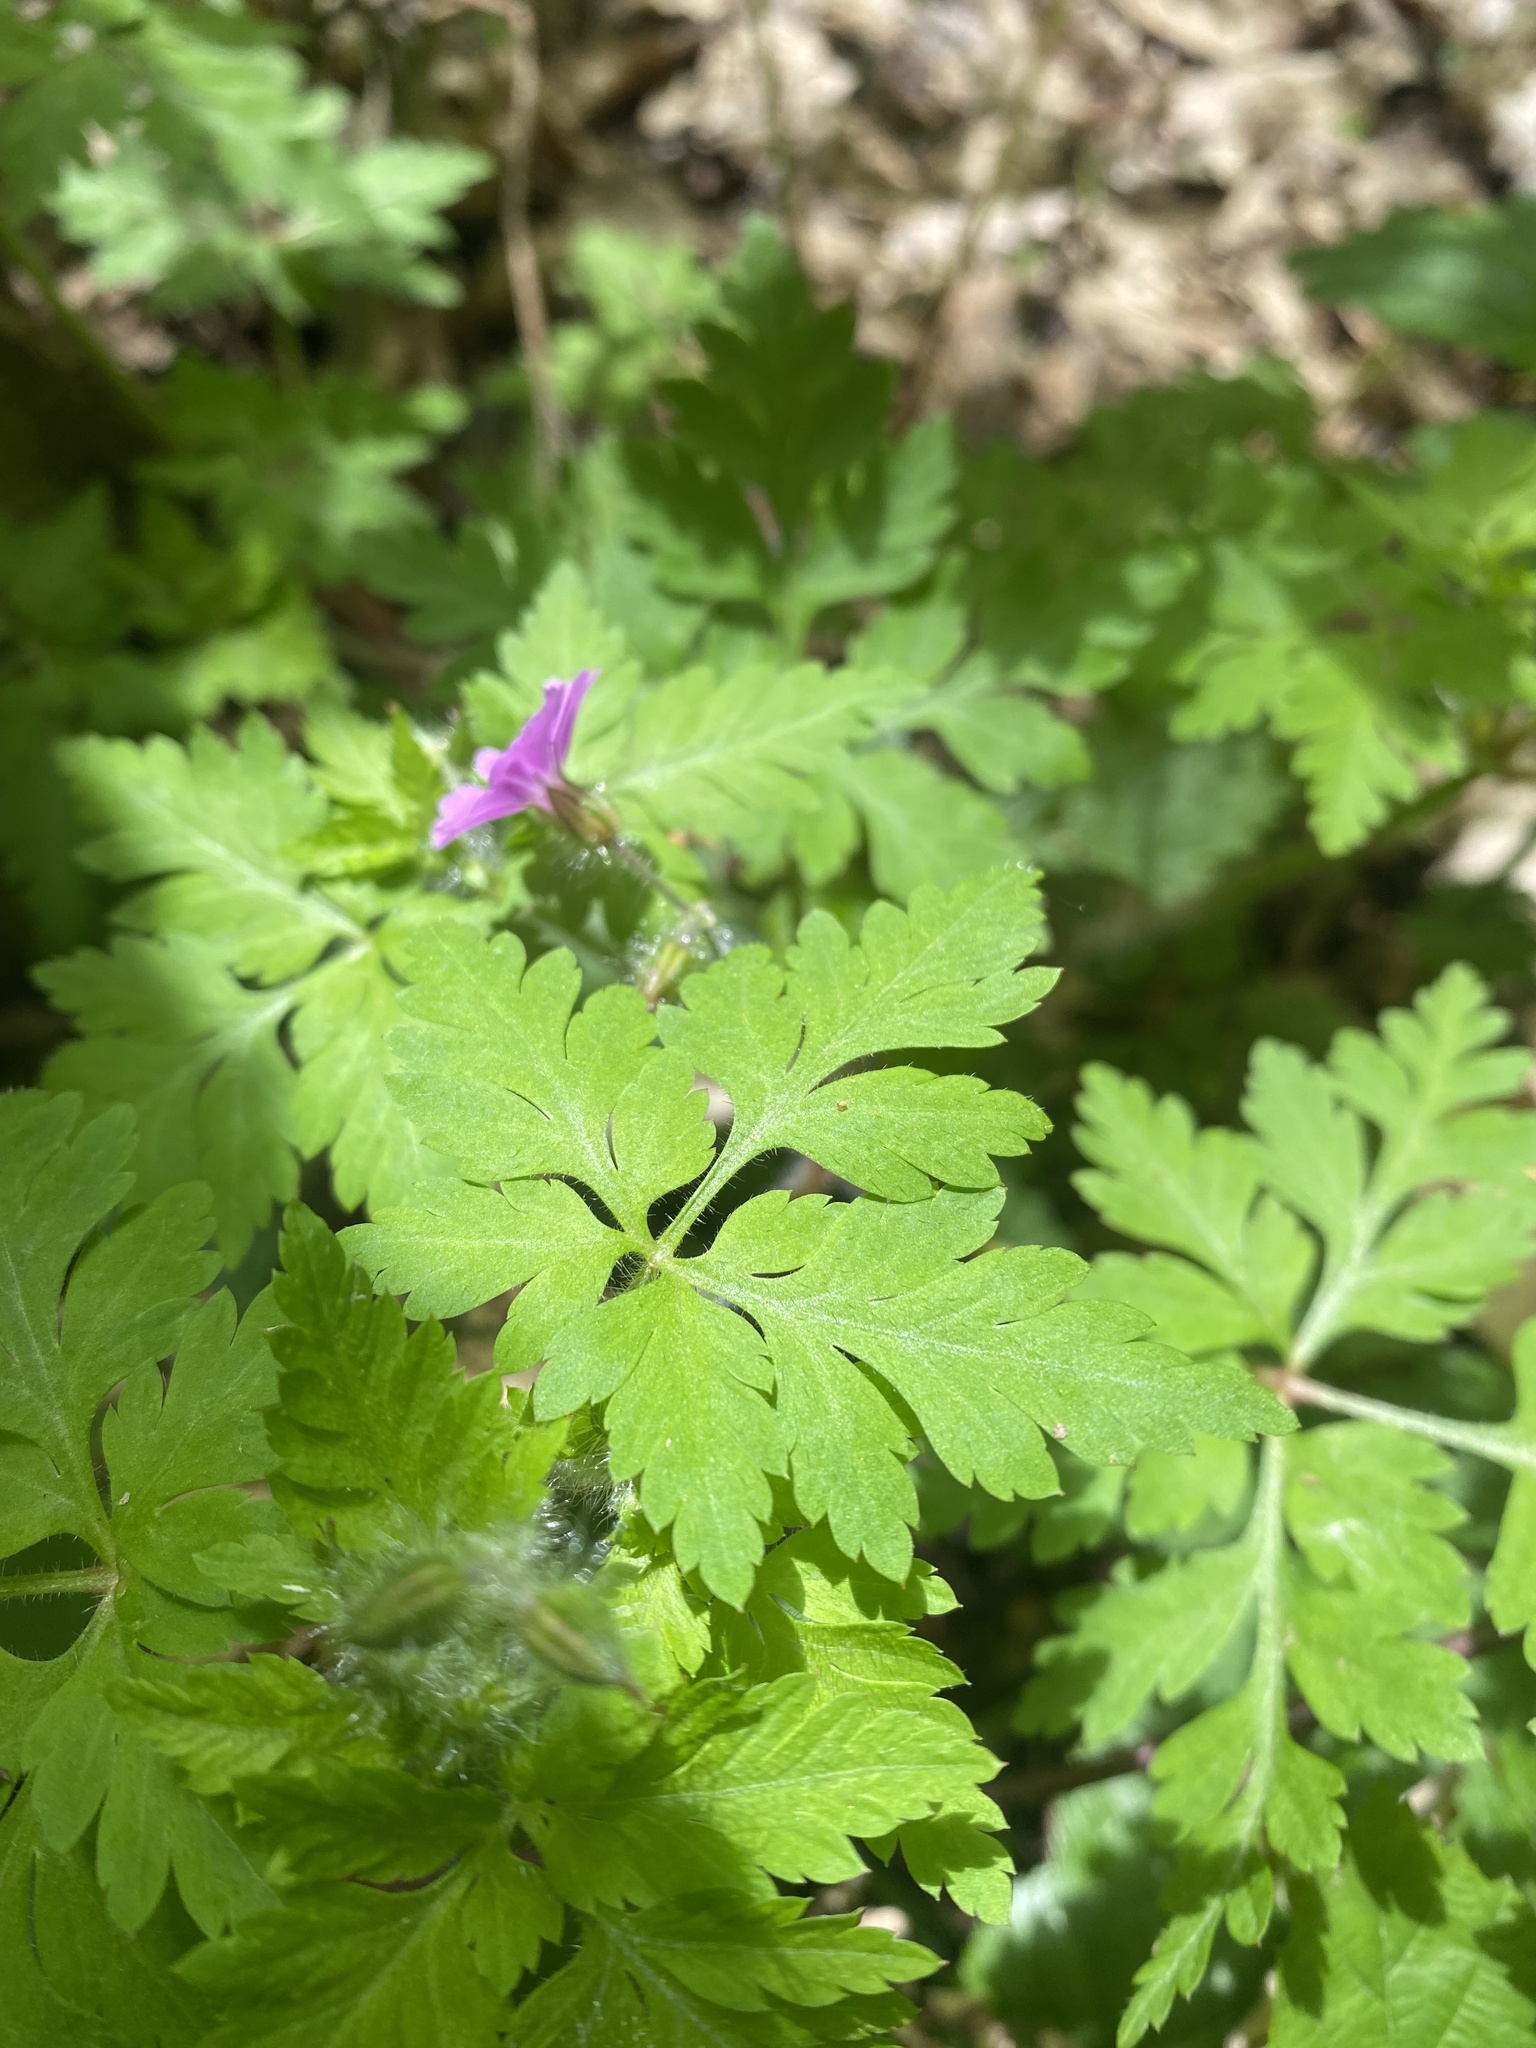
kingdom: Plantae
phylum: Tracheophyta
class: Magnoliopsida
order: Geraniales
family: Geraniaceae
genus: Geranium
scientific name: Geranium robertianum
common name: Herb-robert
